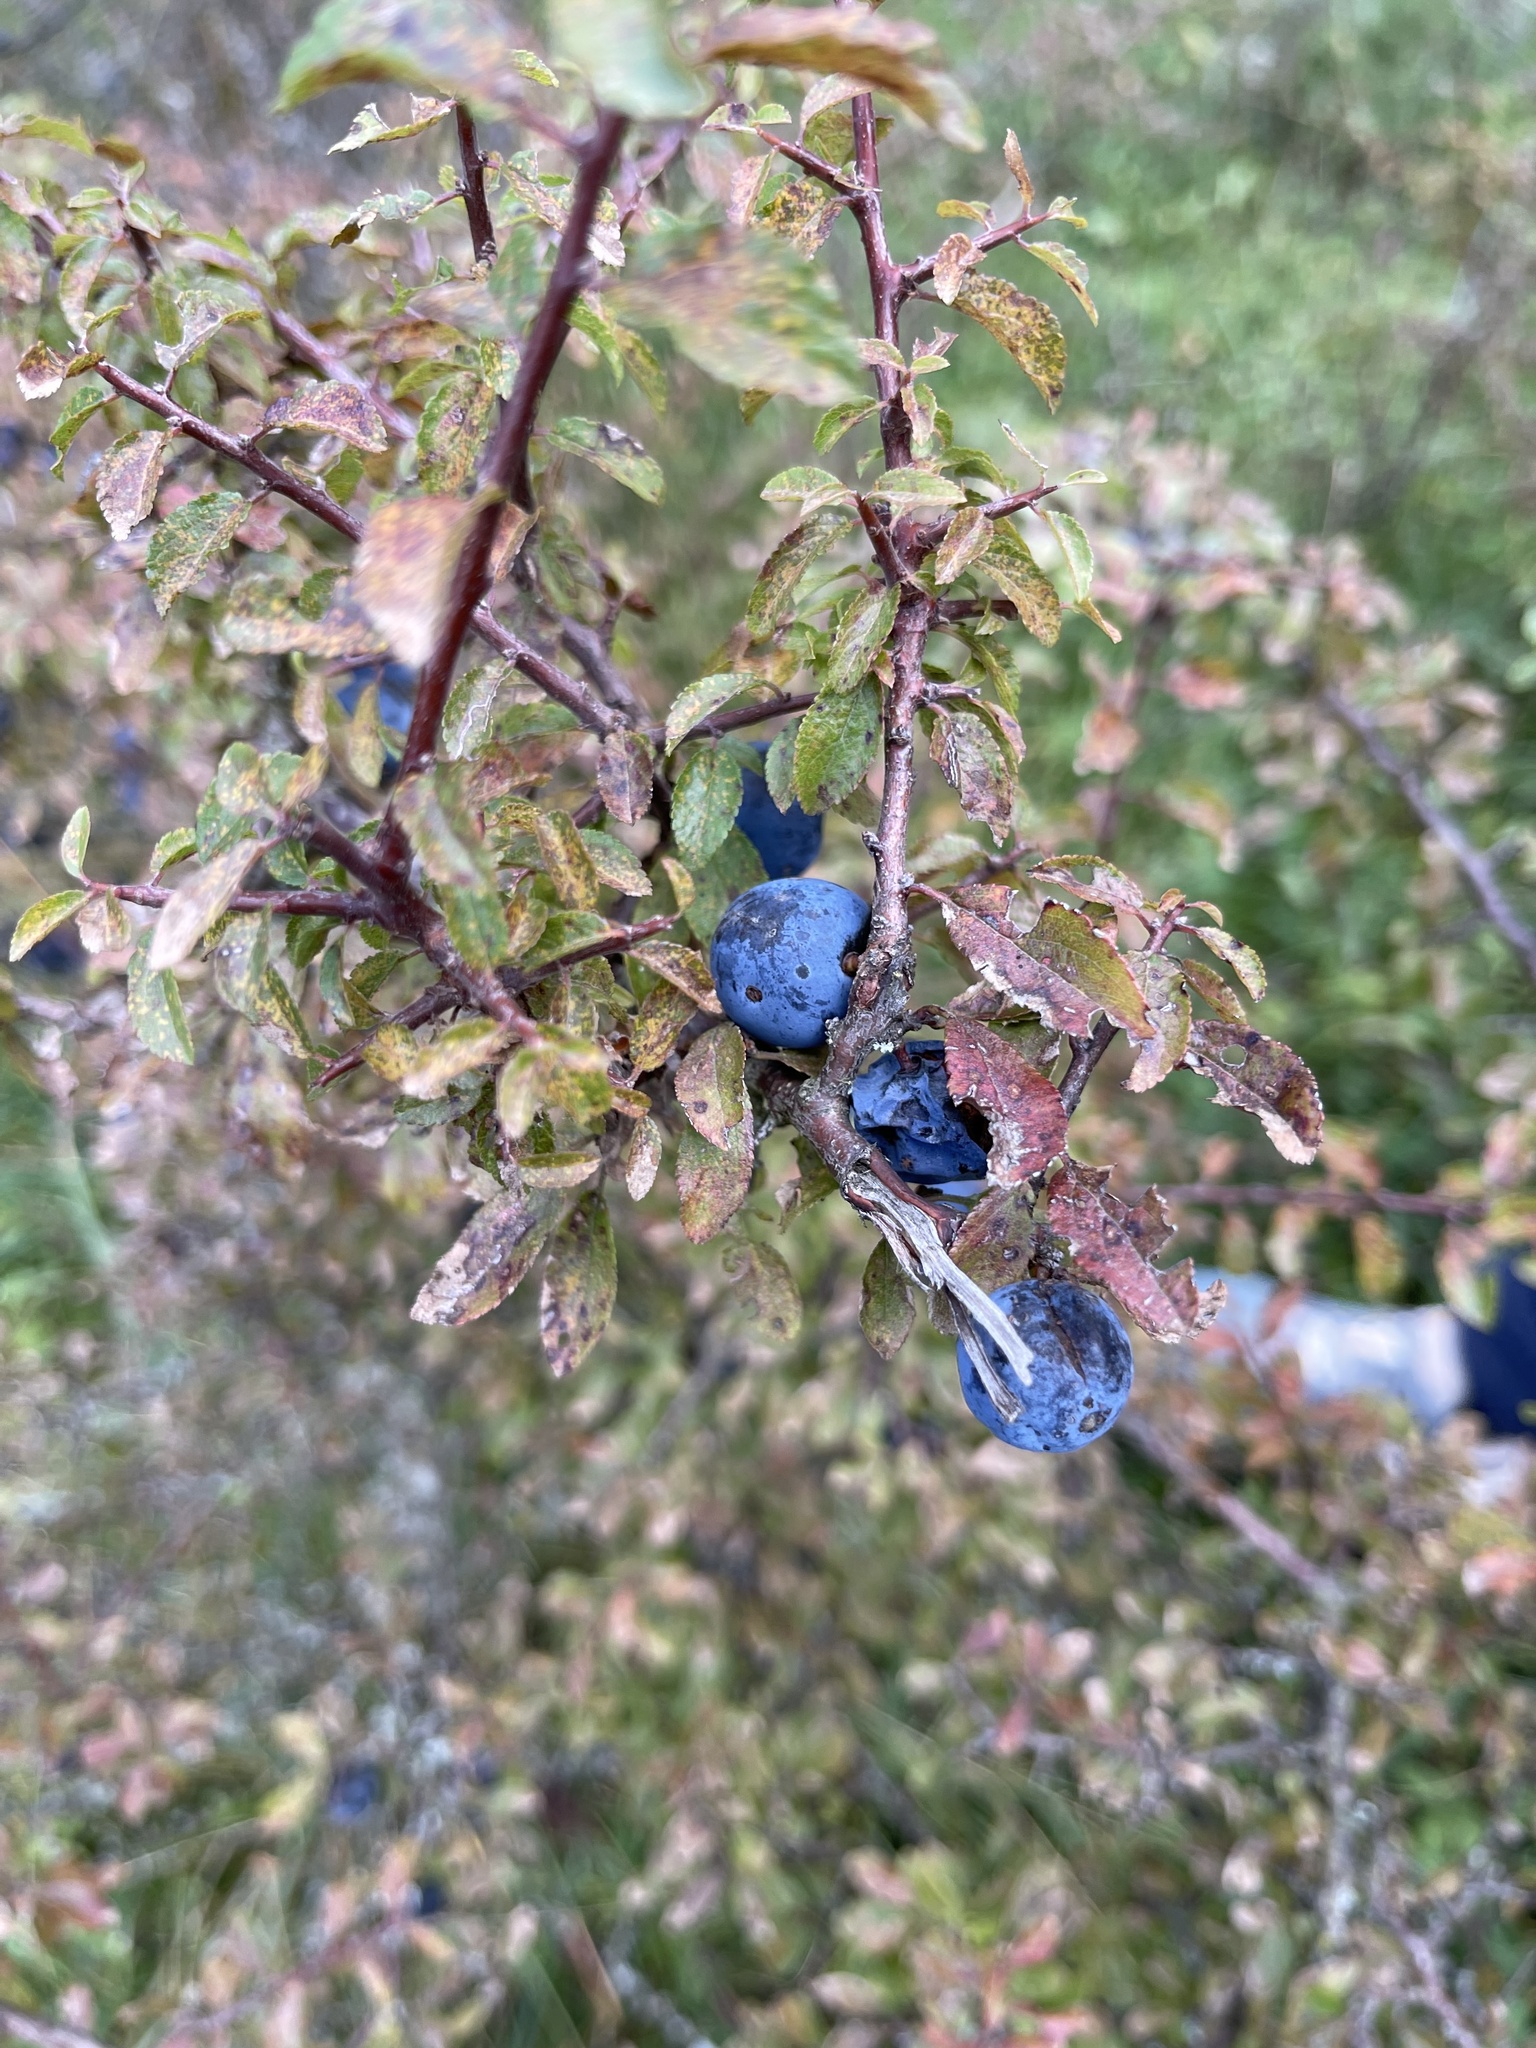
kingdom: Plantae
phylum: Tracheophyta
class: Magnoliopsida
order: Rosales
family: Rosaceae
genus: Prunus
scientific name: Prunus spinosa
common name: Blackthorn
